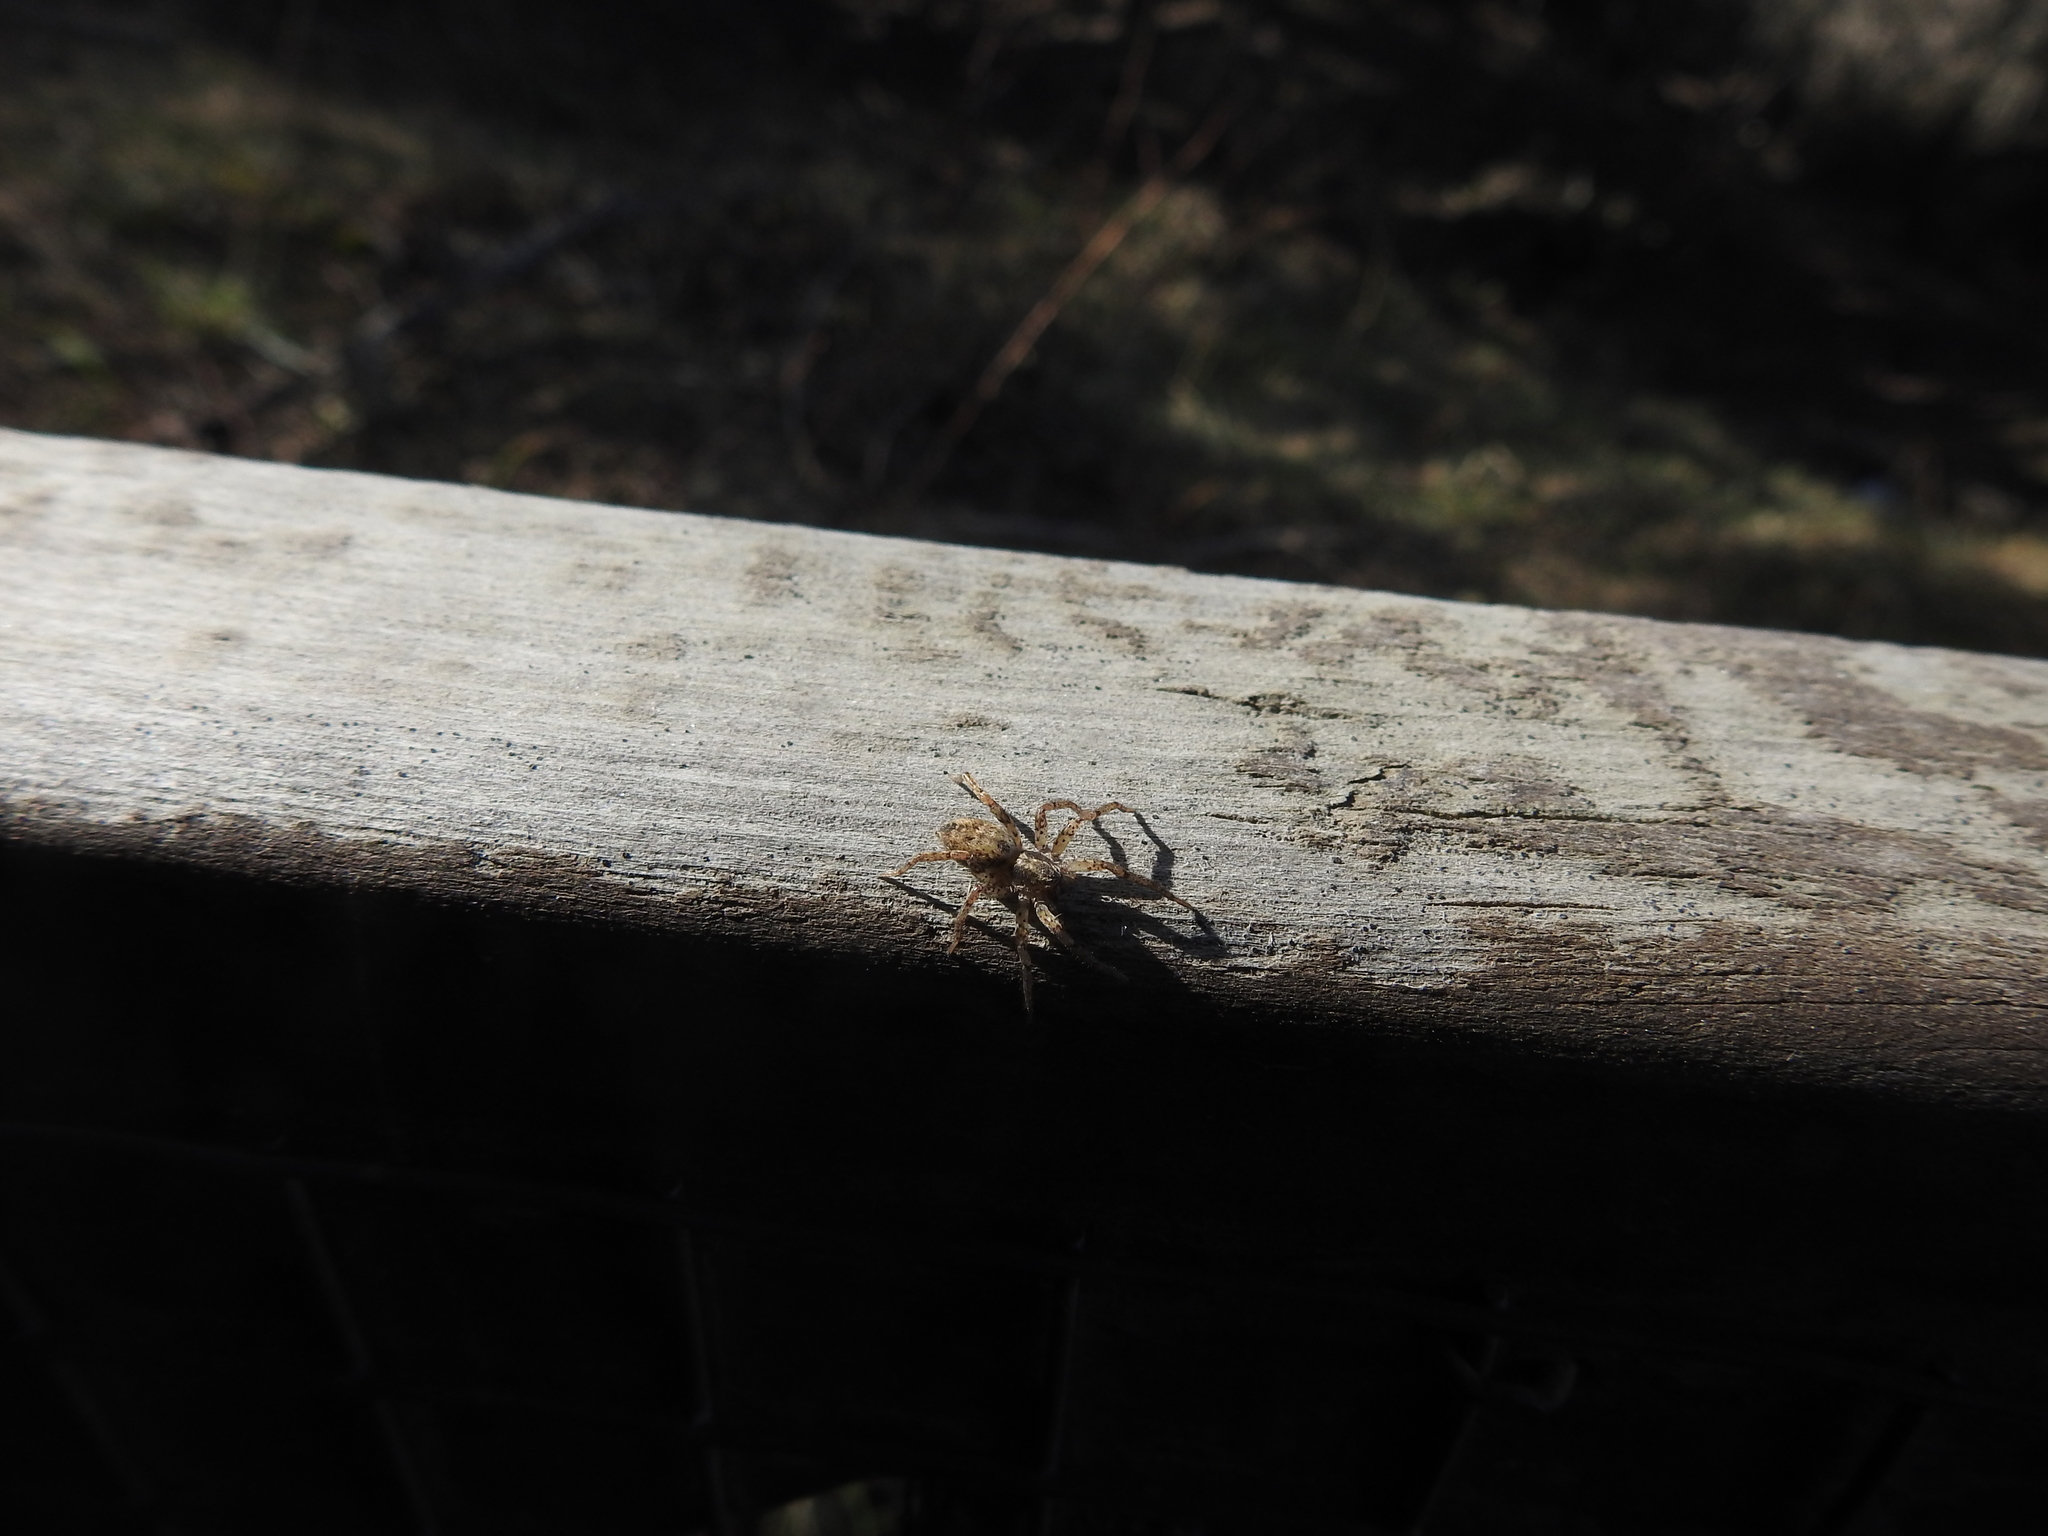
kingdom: Animalia
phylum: Arthropoda
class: Arachnida
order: Araneae
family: Anyphaenidae
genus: Tomopisthes
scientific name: Tomopisthes varius
